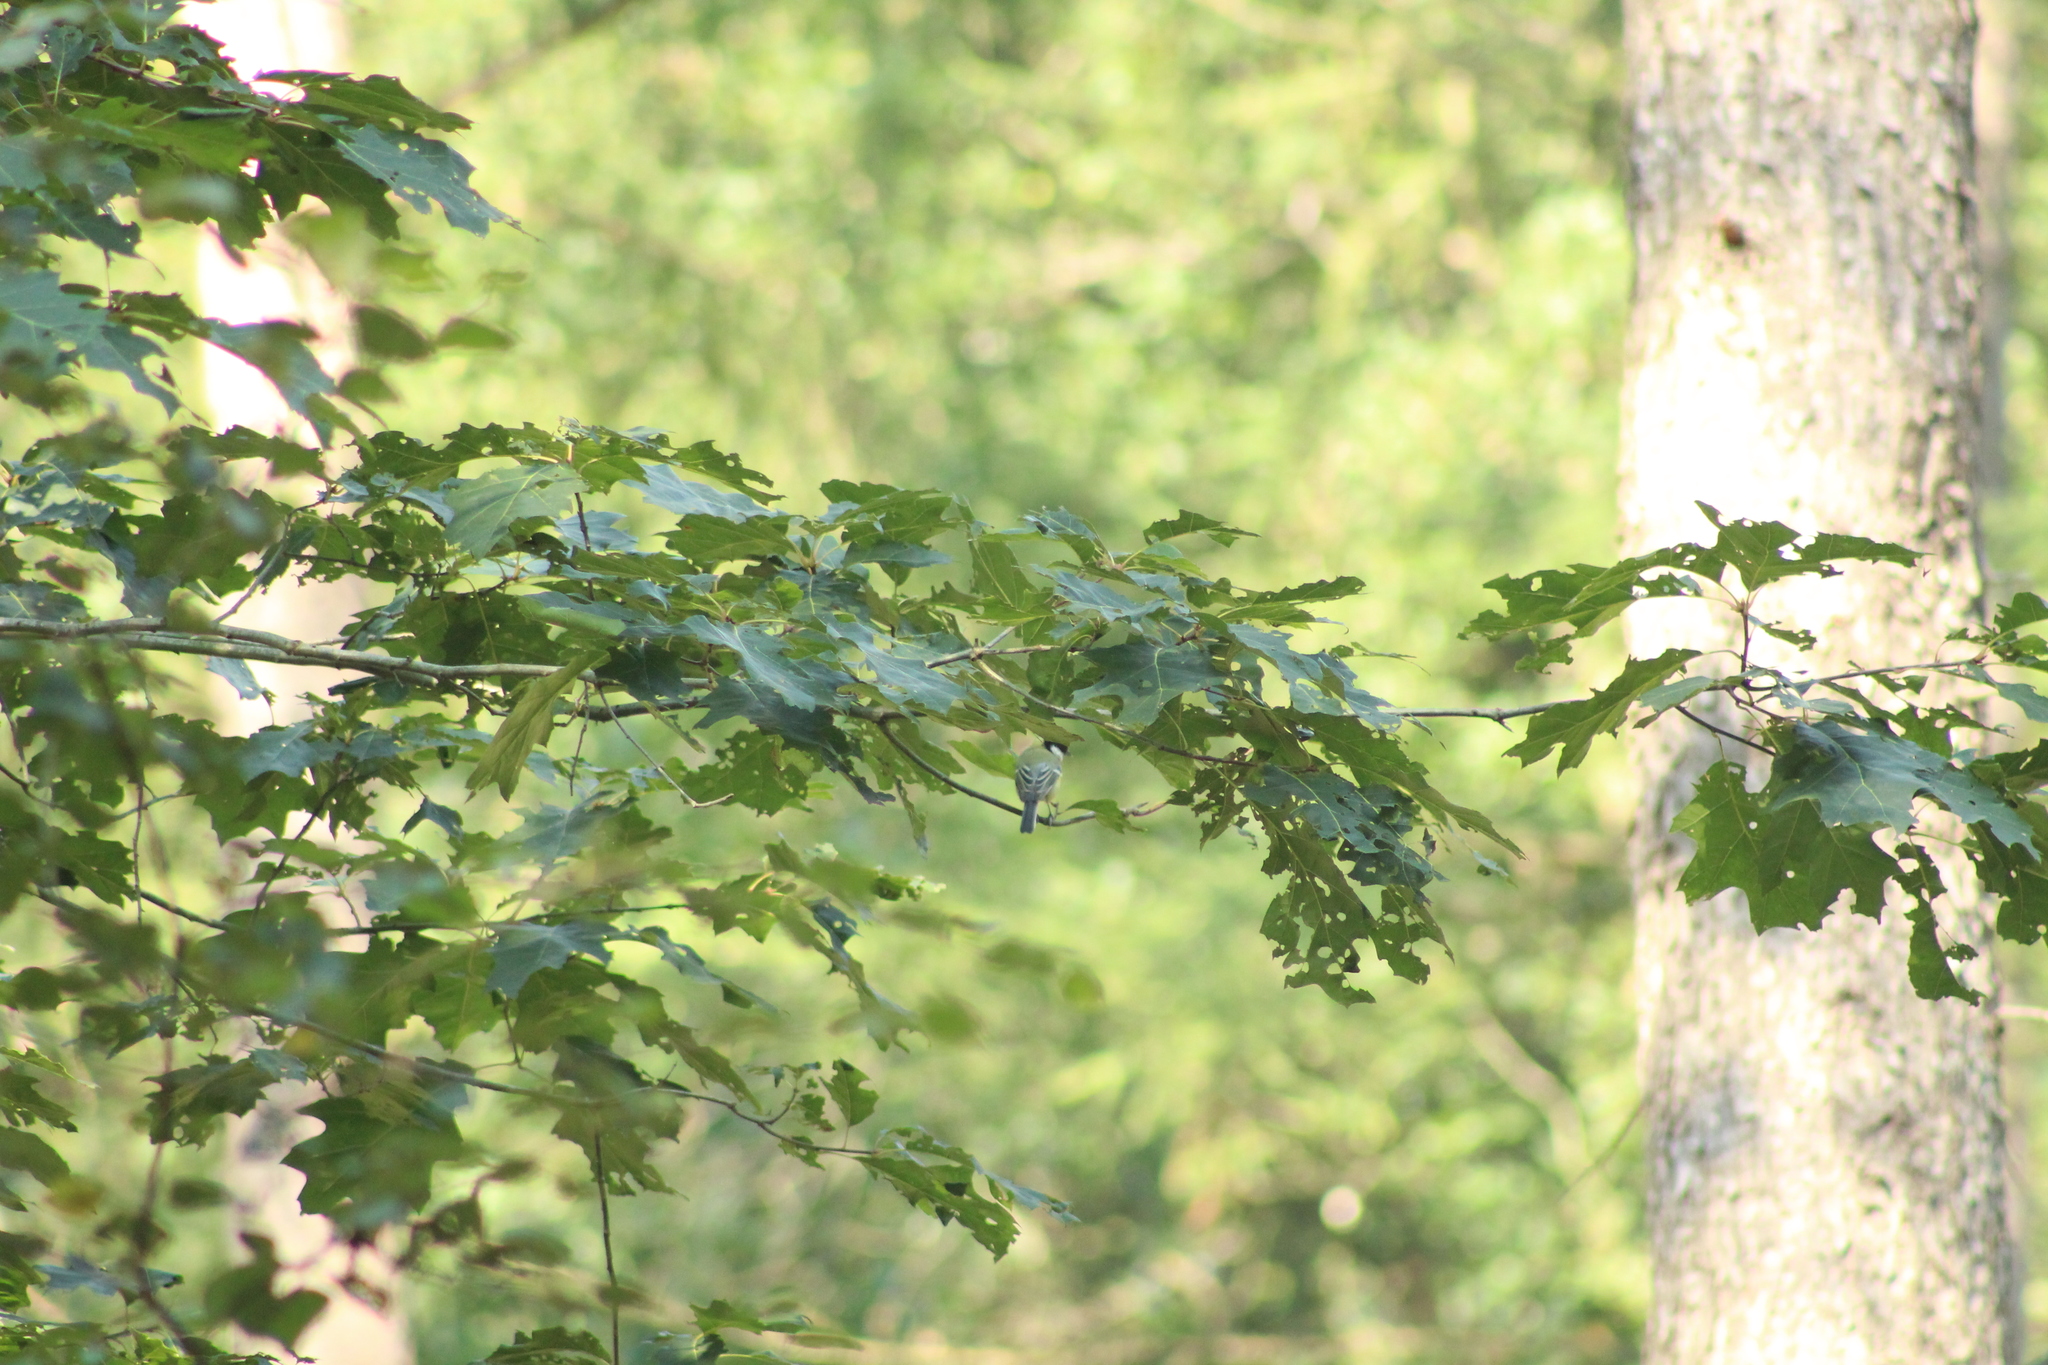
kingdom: Animalia
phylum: Chordata
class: Aves
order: Passeriformes
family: Paridae
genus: Parus
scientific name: Parus major
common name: Great tit
